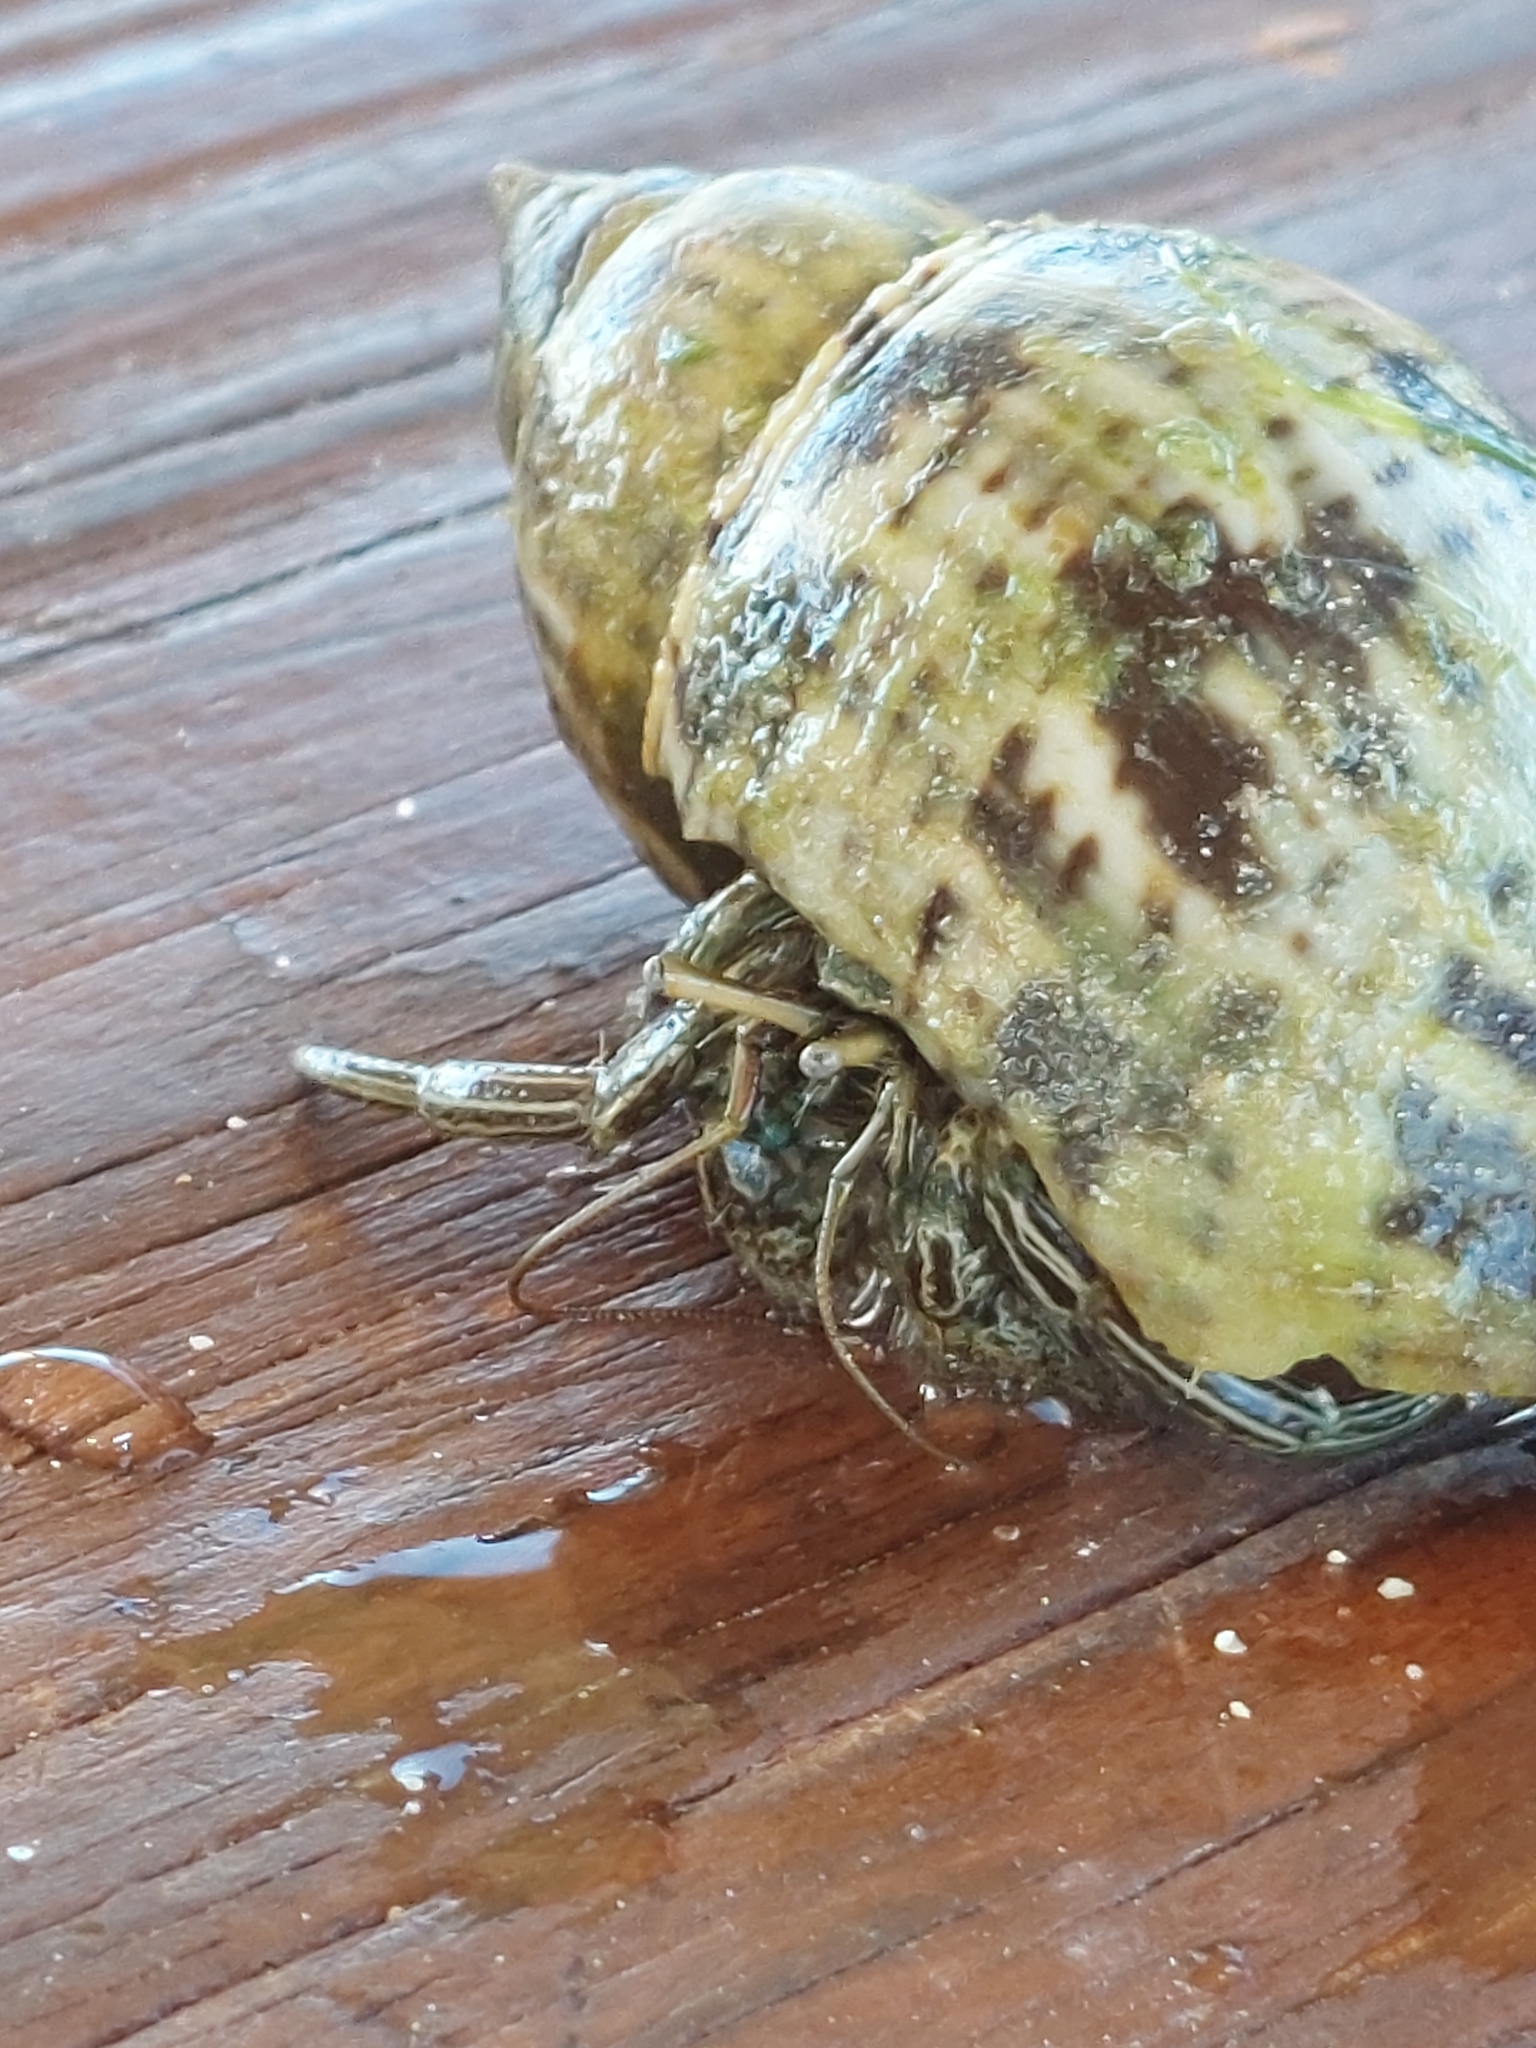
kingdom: Animalia
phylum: Arthropoda
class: Malacostraca
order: Decapoda
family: Diogenidae
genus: Clibanarius
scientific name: Clibanarius vittatus
